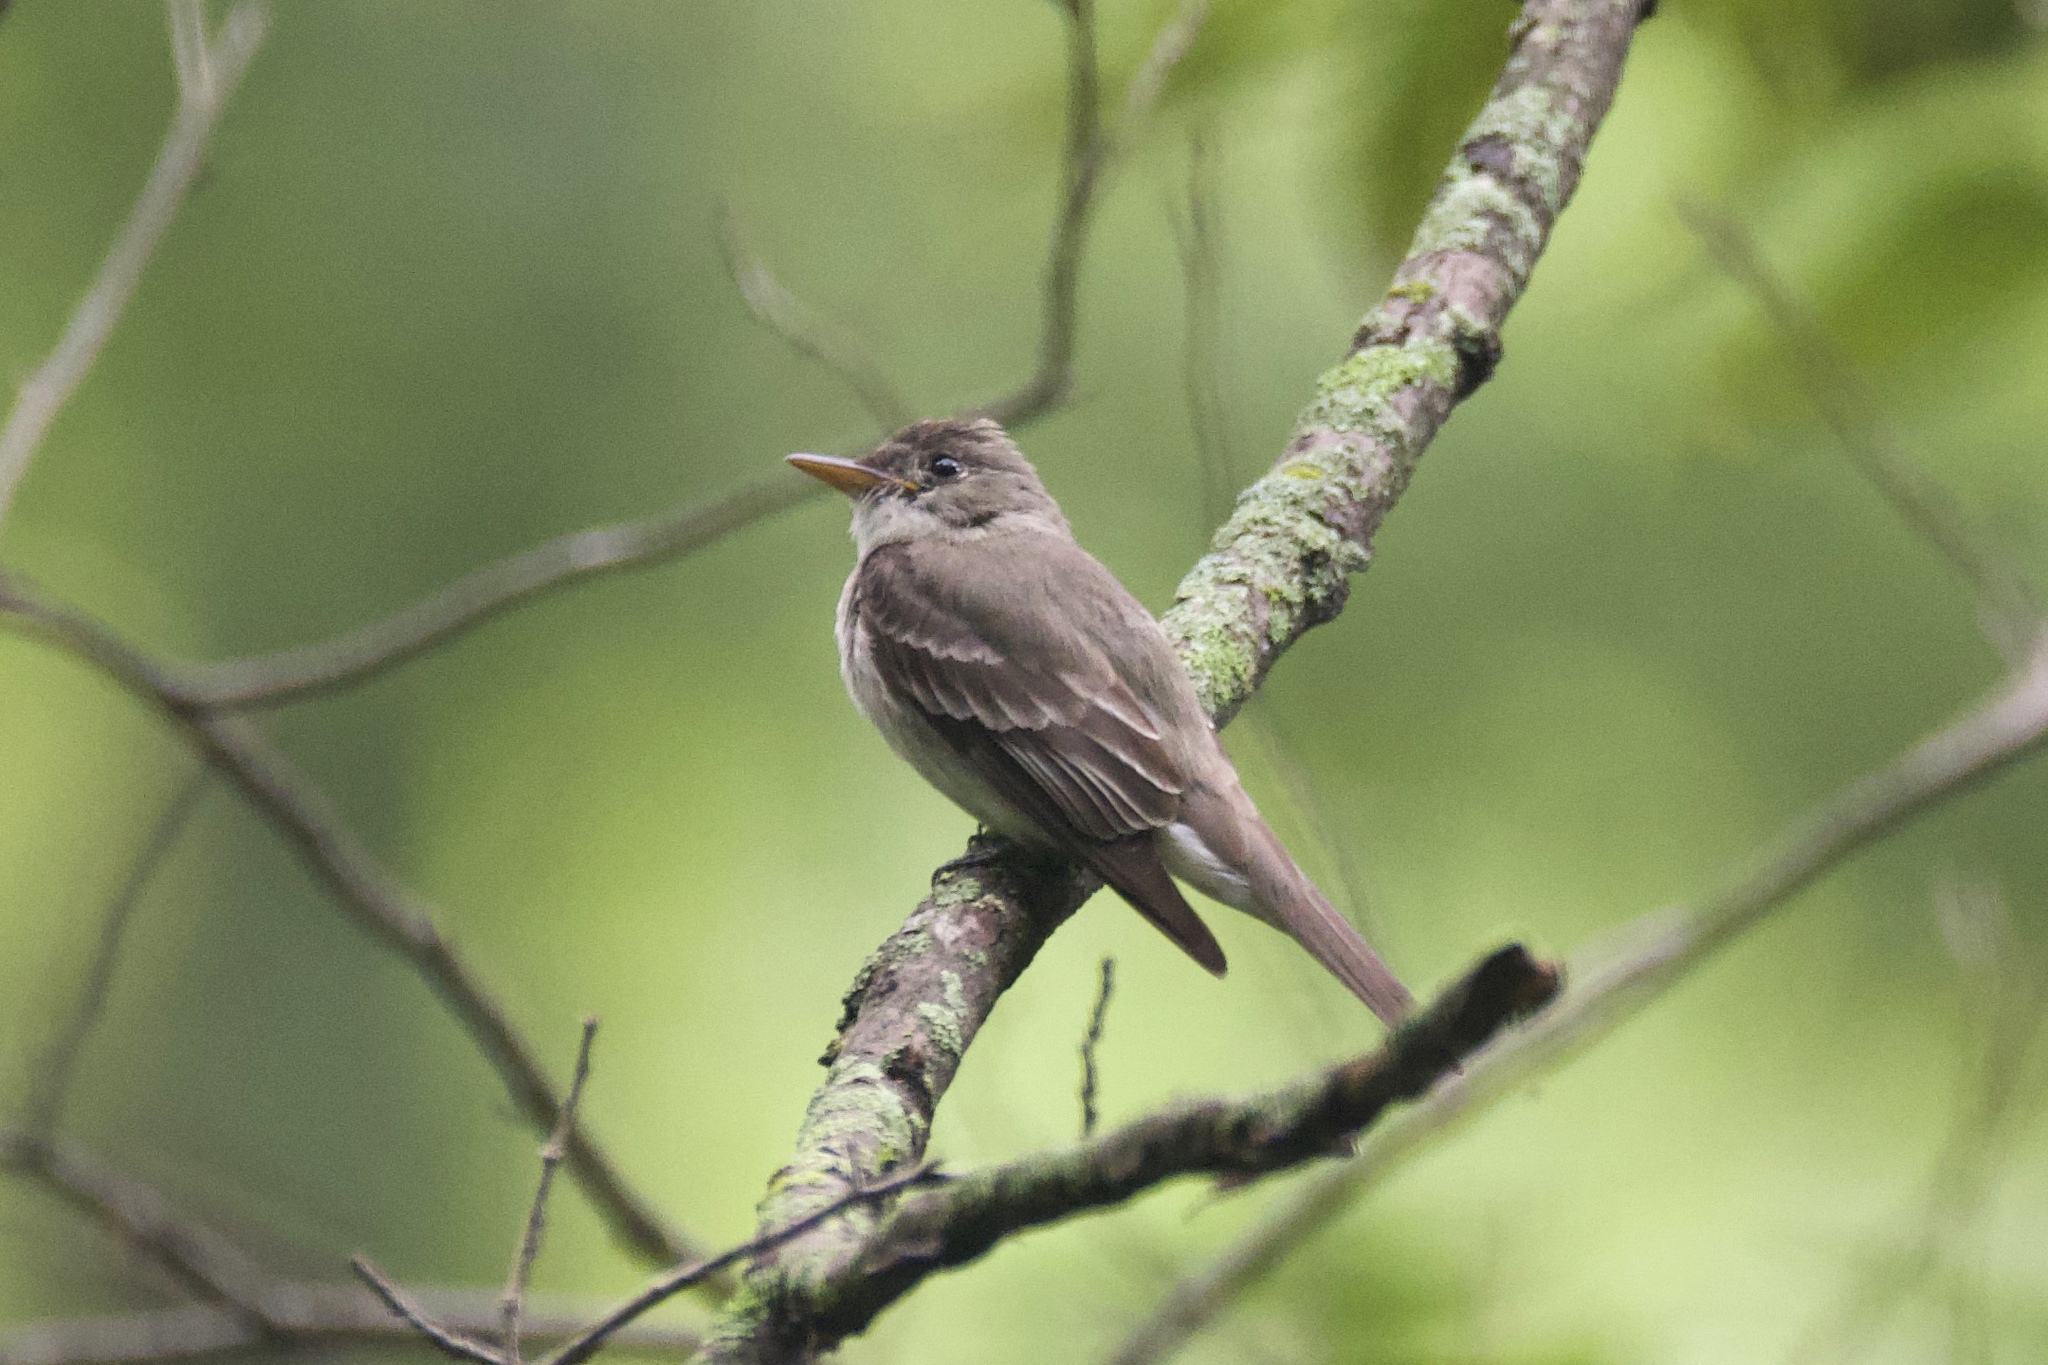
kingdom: Animalia
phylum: Chordata
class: Aves
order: Passeriformes
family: Tyrannidae
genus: Contopus
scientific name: Contopus virens
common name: Eastern wood-pewee
